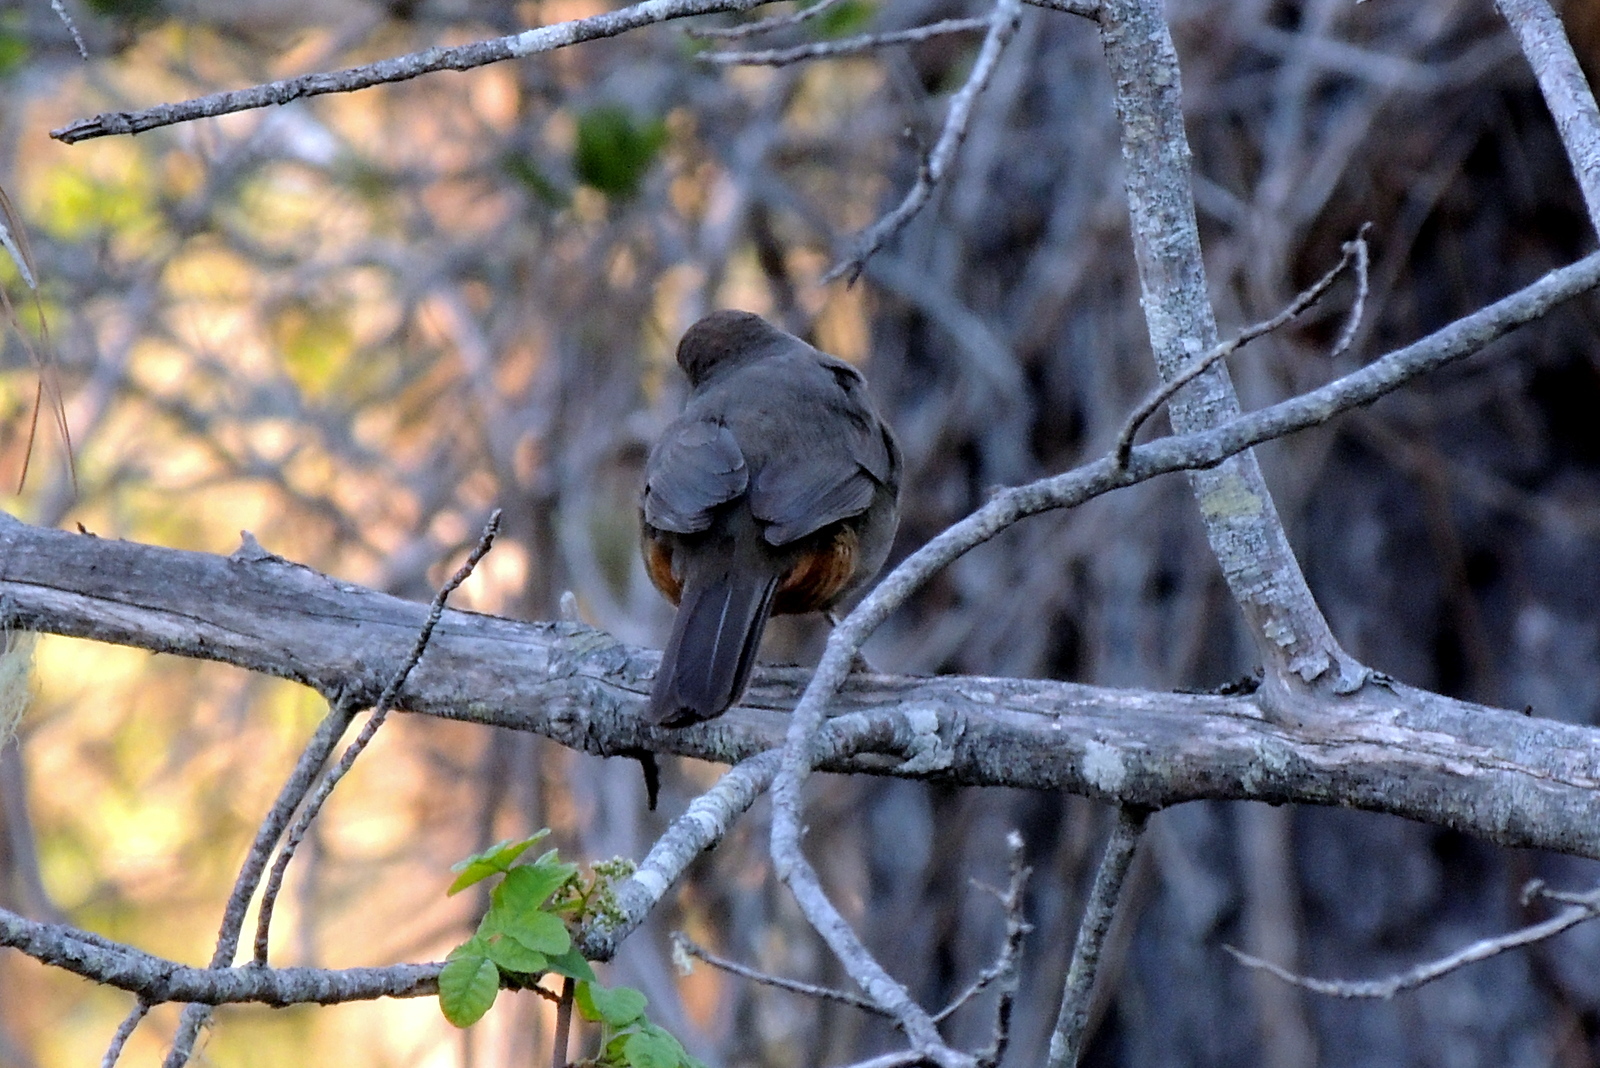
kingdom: Animalia
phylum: Chordata
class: Aves
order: Passeriformes
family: Passerellidae
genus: Melozone
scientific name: Melozone crissalis
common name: California towhee
